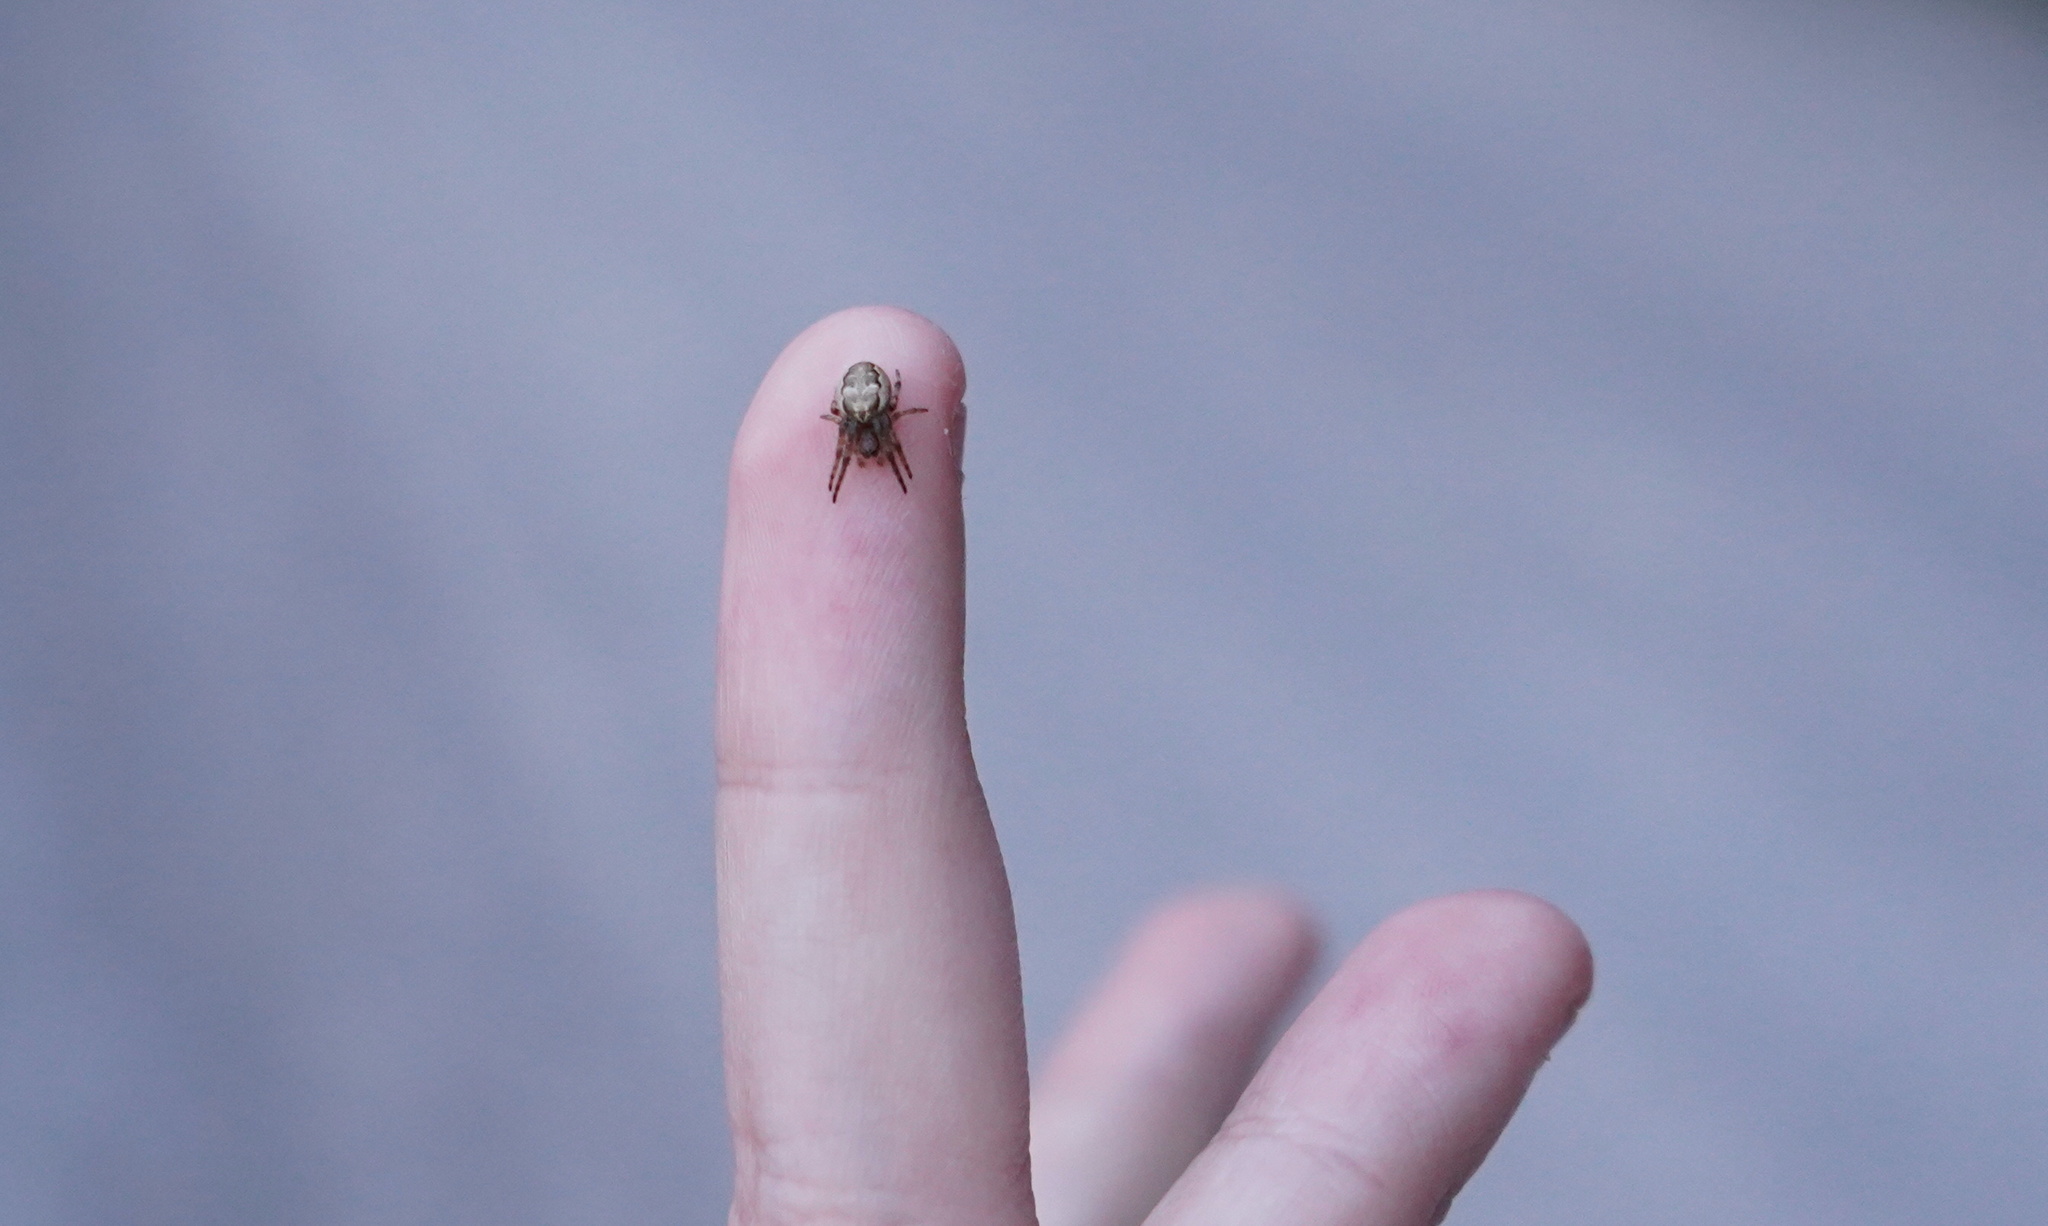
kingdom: Animalia
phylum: Arthropoda
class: Arachnida
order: Araneae
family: Araneidae
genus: Larinioides
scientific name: Larinioides cornutus
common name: Furrow orbweaver
